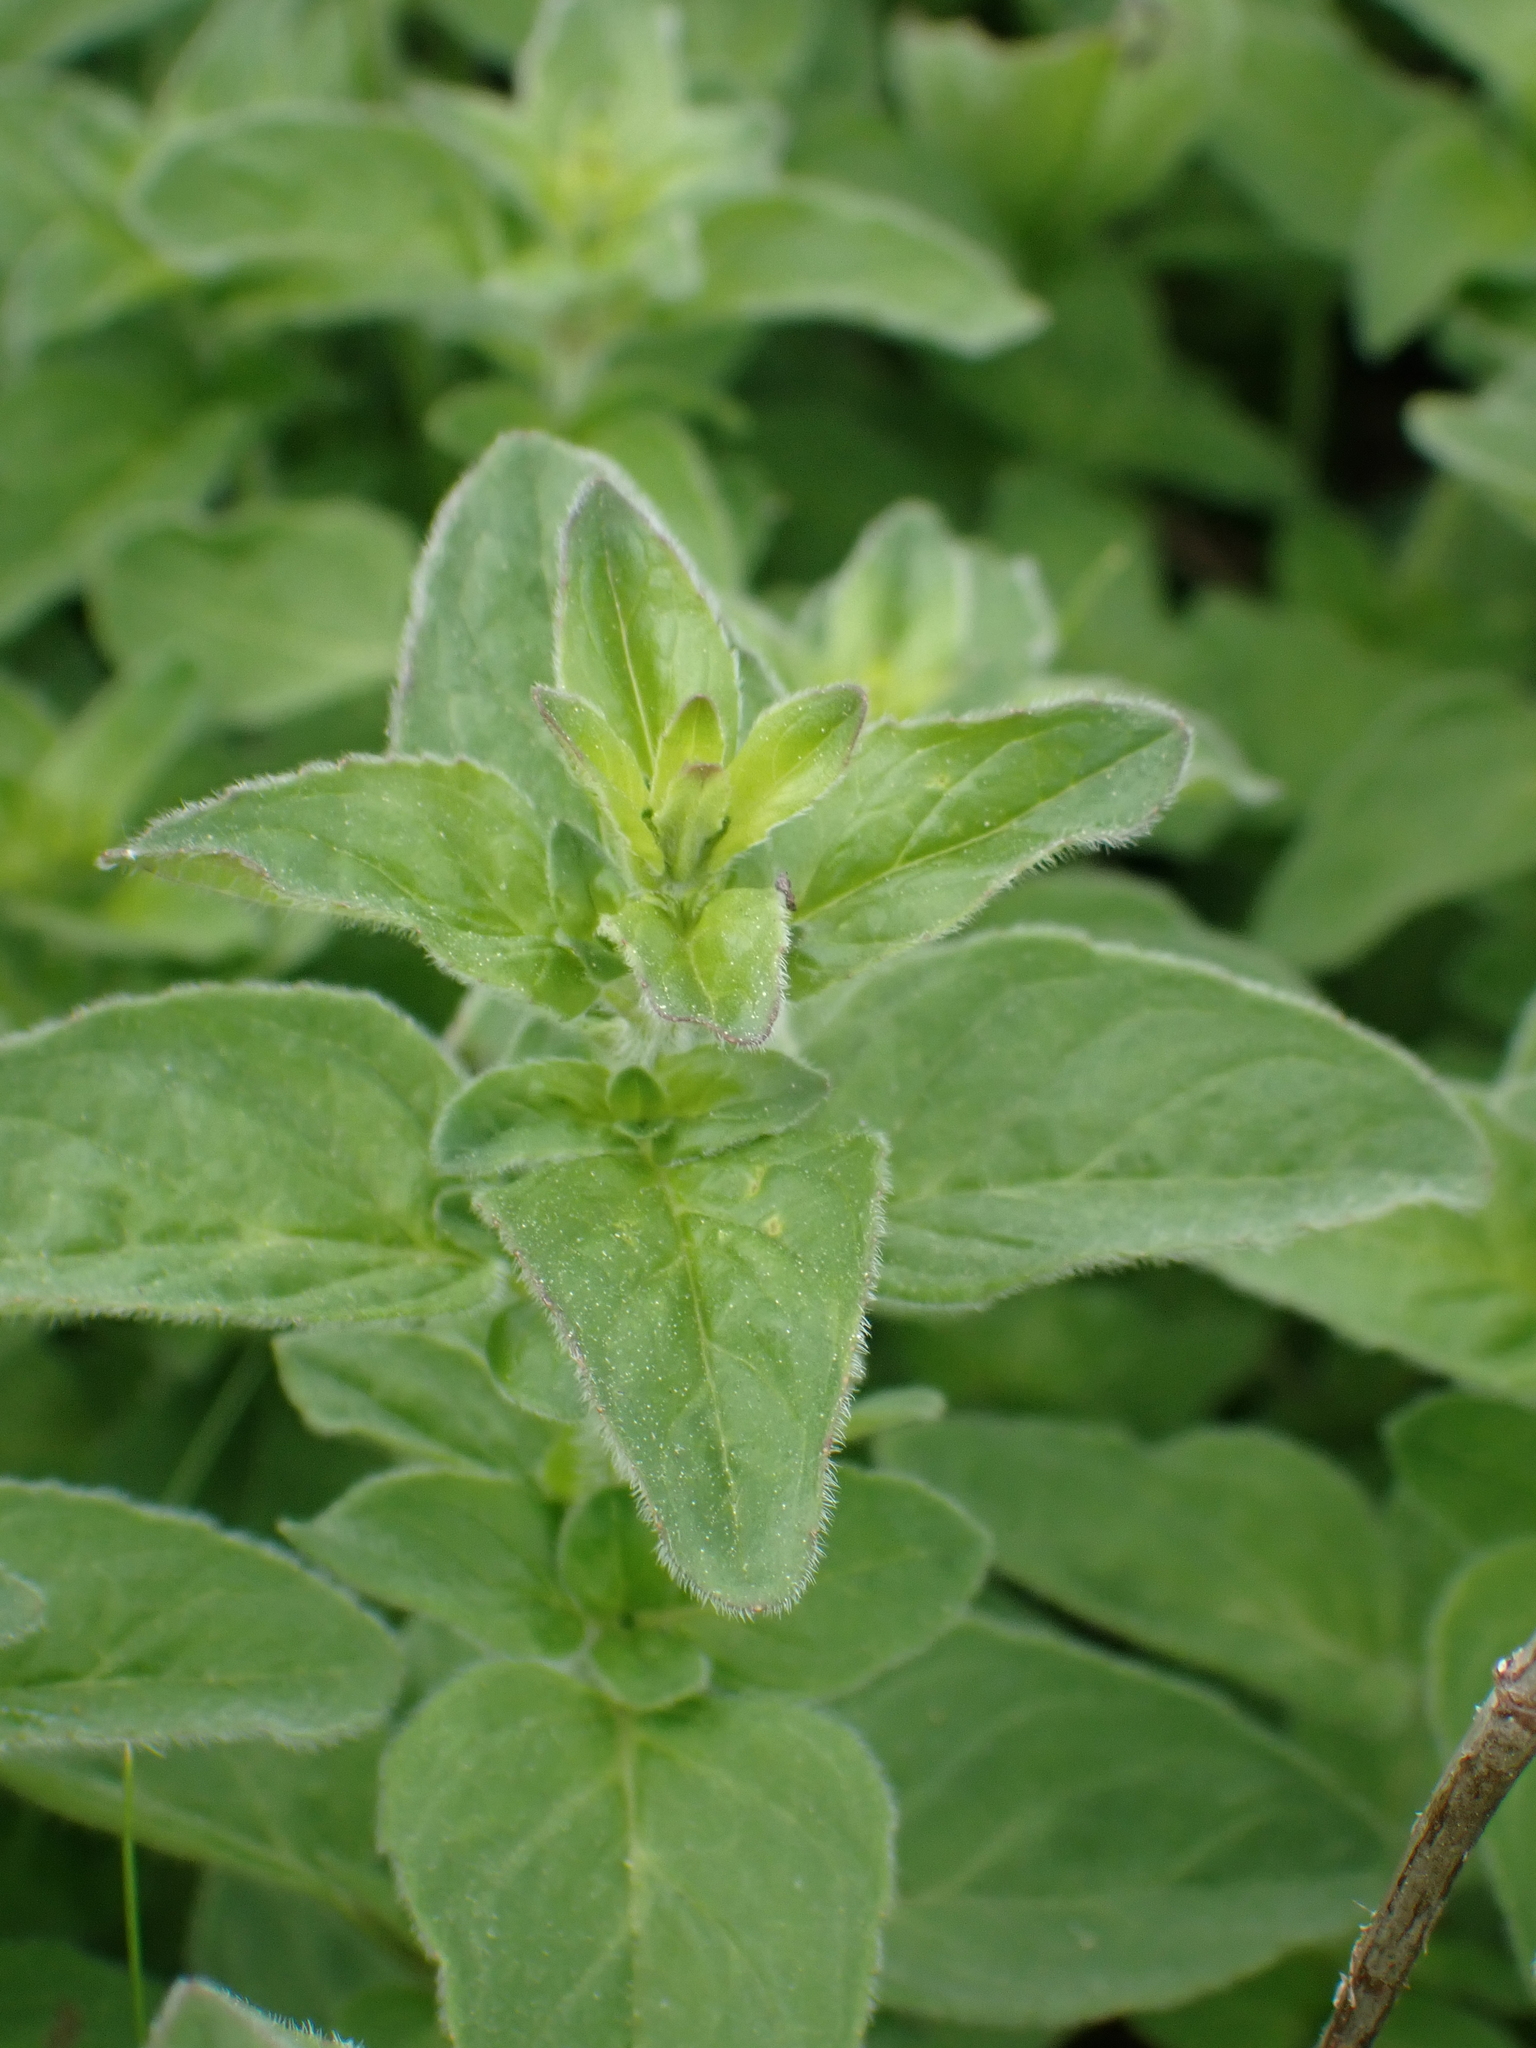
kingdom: Plantae
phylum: Tracheophyta
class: Magnoliopsida
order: Lamiales
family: Lamiaceae
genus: Origanum
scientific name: Origanum vulgare
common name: Wild marjoram
